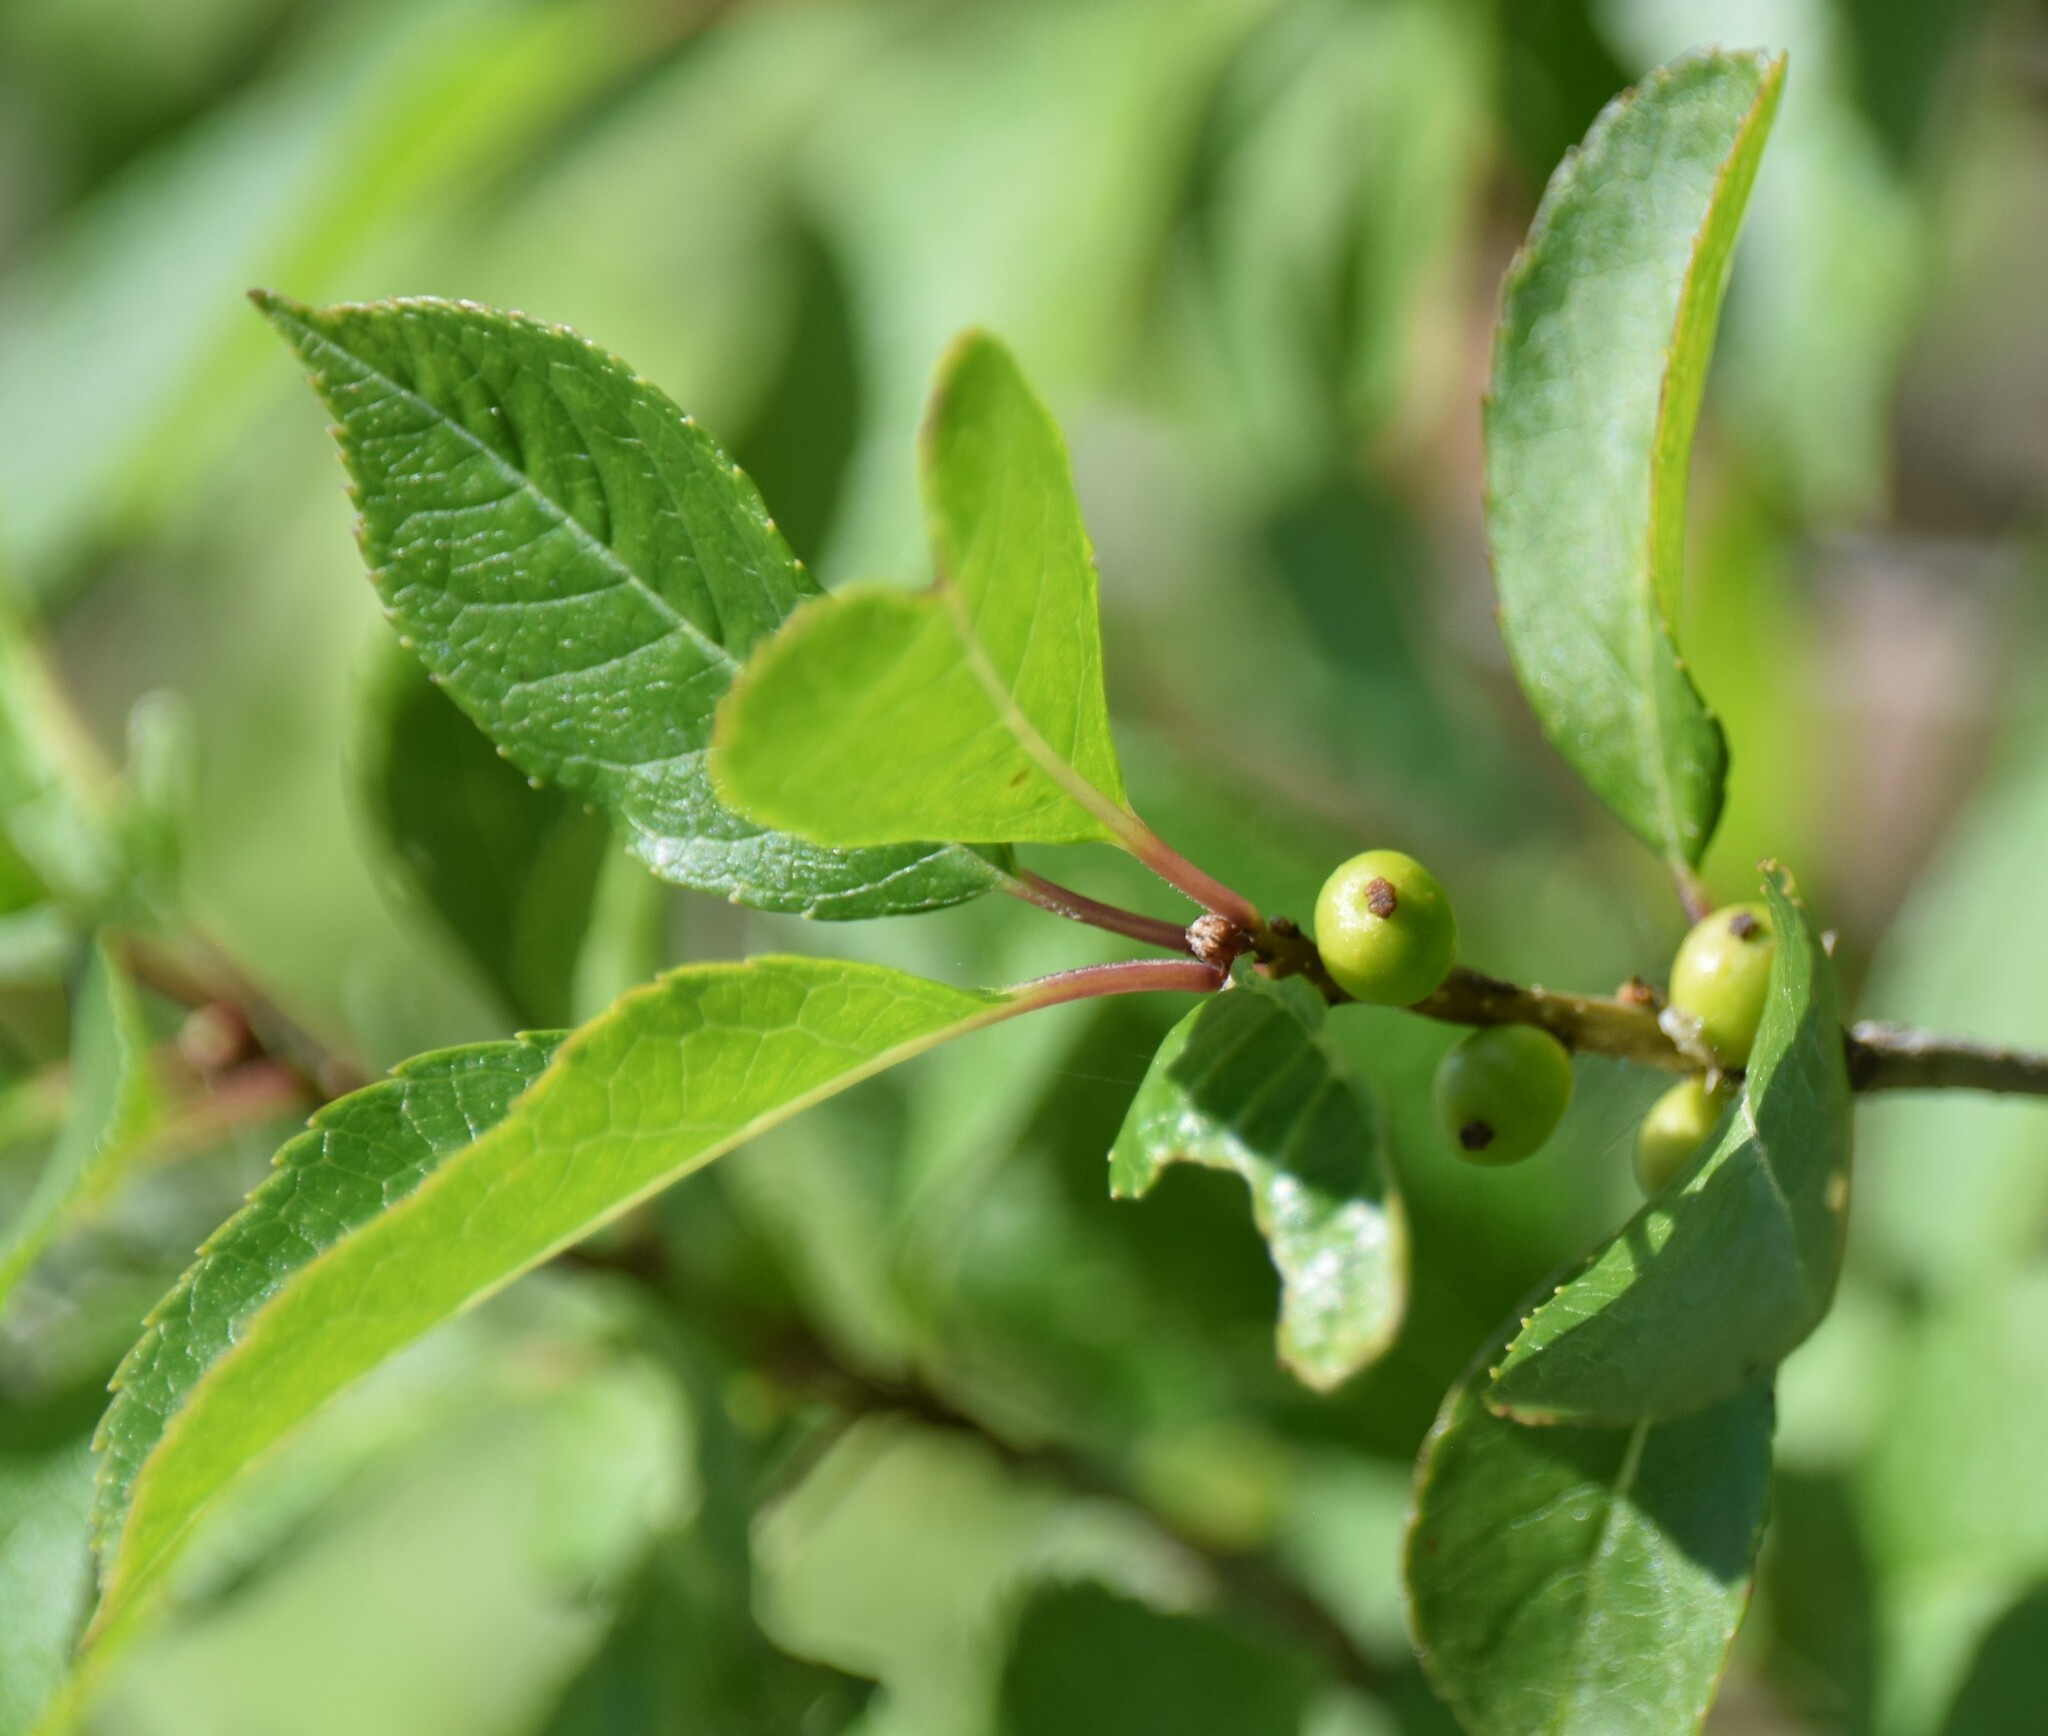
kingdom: Plantae
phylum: Tracheophyta
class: Magnoliopsida
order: Aquifoliales
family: Aquifoliaceae
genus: Ilex
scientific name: Ilex verticillata
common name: Virginia winterberry
